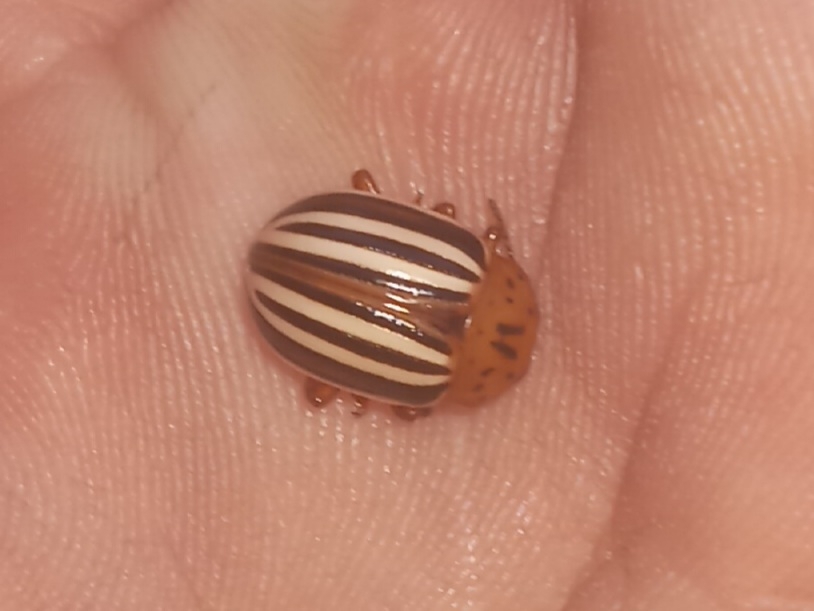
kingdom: Animalia
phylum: Arthropoda
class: Insecta
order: Coleoptera
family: Chrysomelidae
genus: Leptinotarsa
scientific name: Leptinotarsa juncta
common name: False potato beetle
